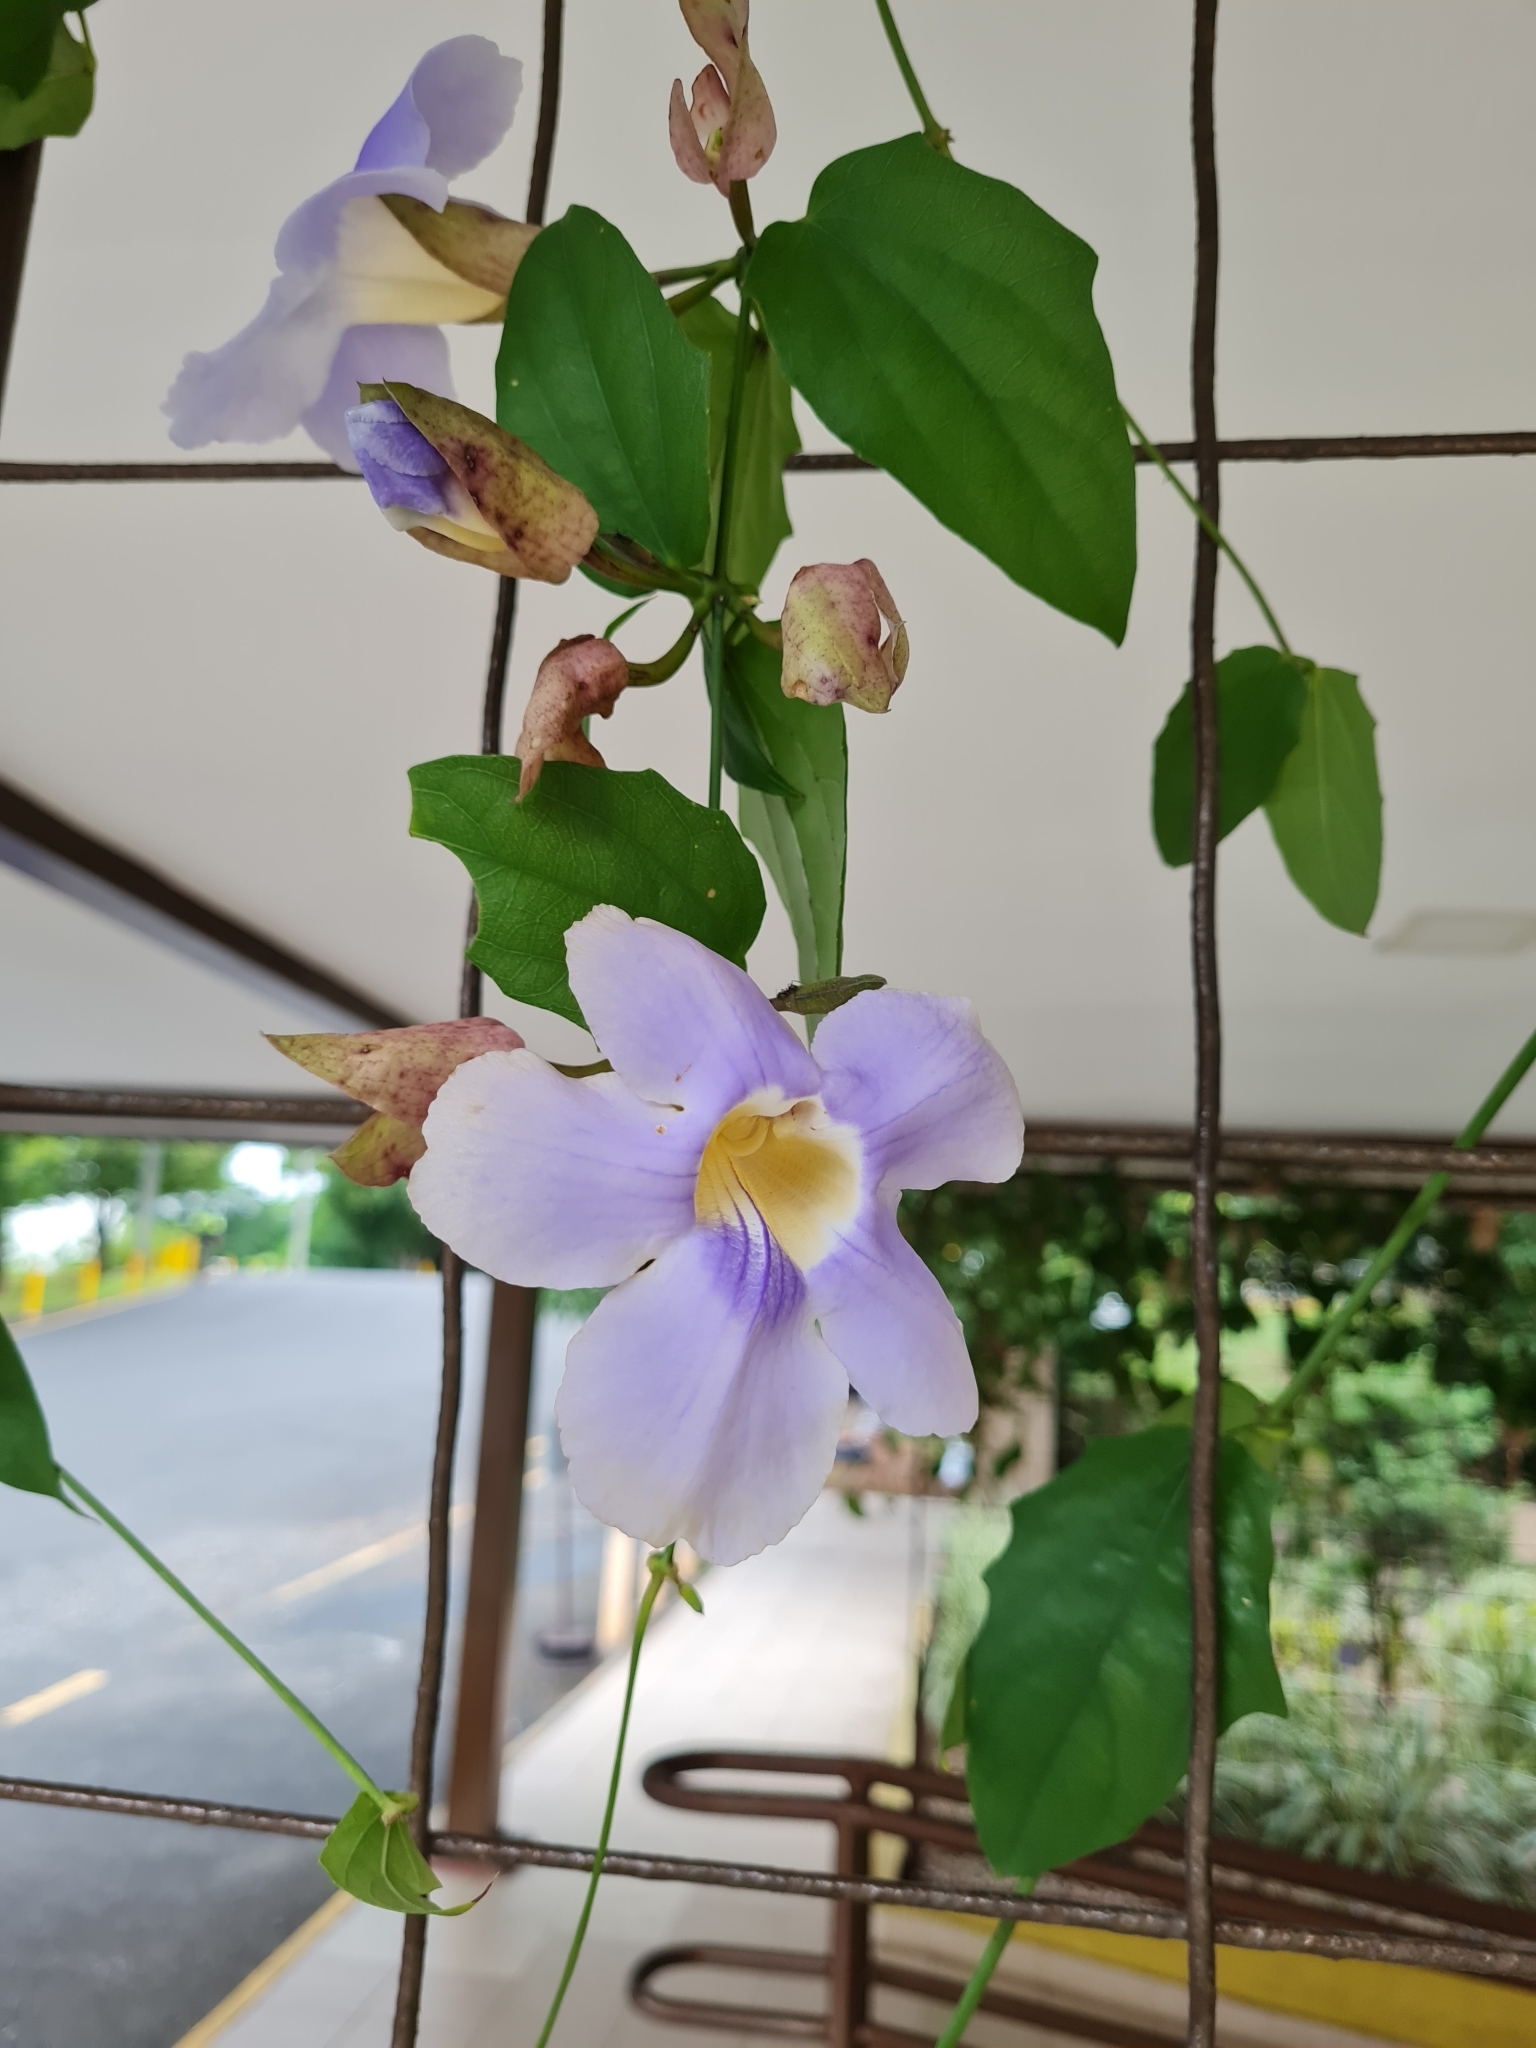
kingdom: Plantae
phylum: Tracheophyta
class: Magnoliopsida
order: Lamiales
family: Acanthaceae
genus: Thunbergia
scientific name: Thunbergia grandiflora
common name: Bengal trumpet
